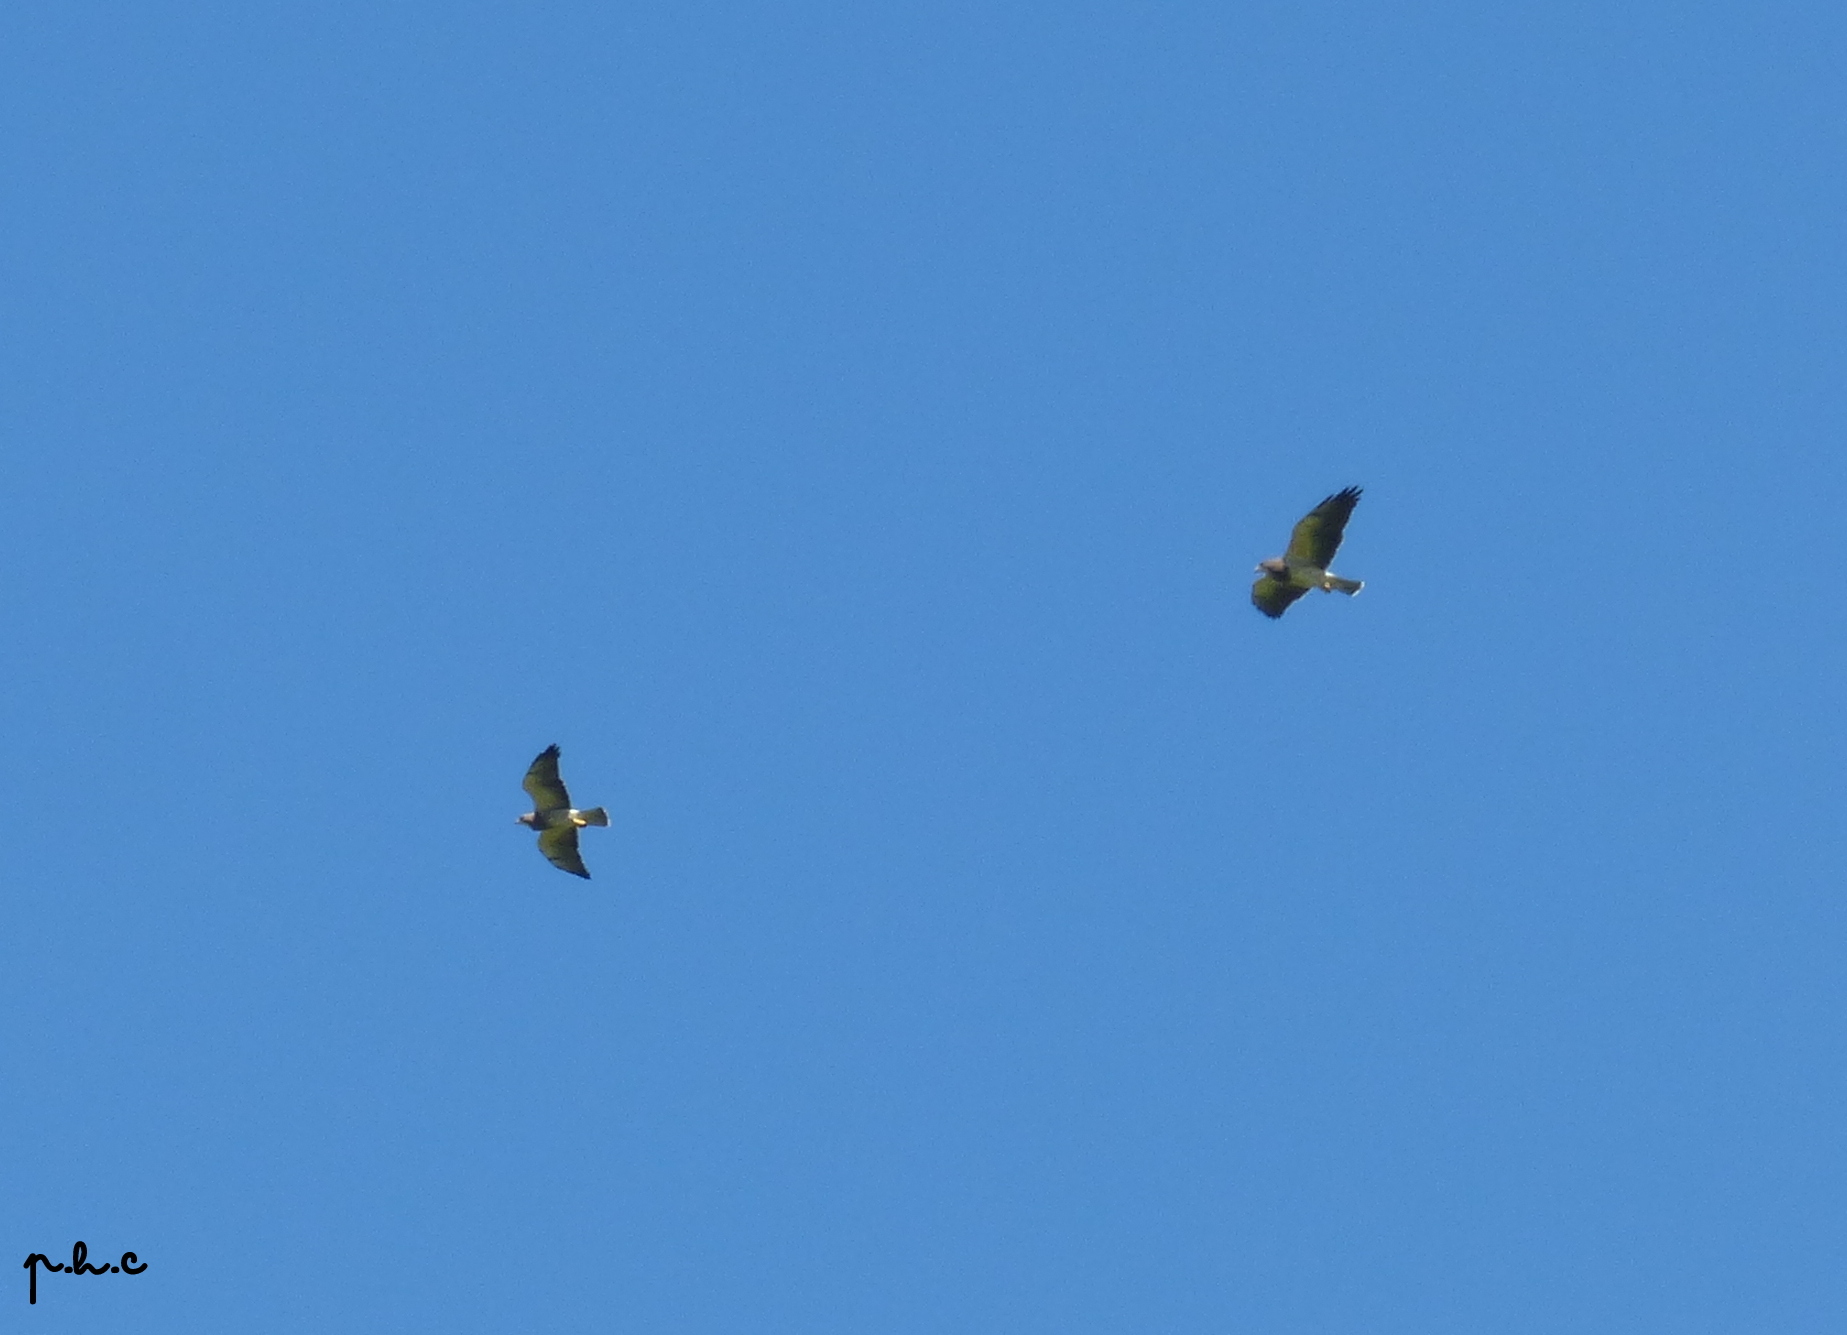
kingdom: Animalia
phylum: Chordata
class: Aves
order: Accipitriformes
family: Accipitridae
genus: Buteo
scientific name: Buteo swainsoni
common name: Swainson's hawk
